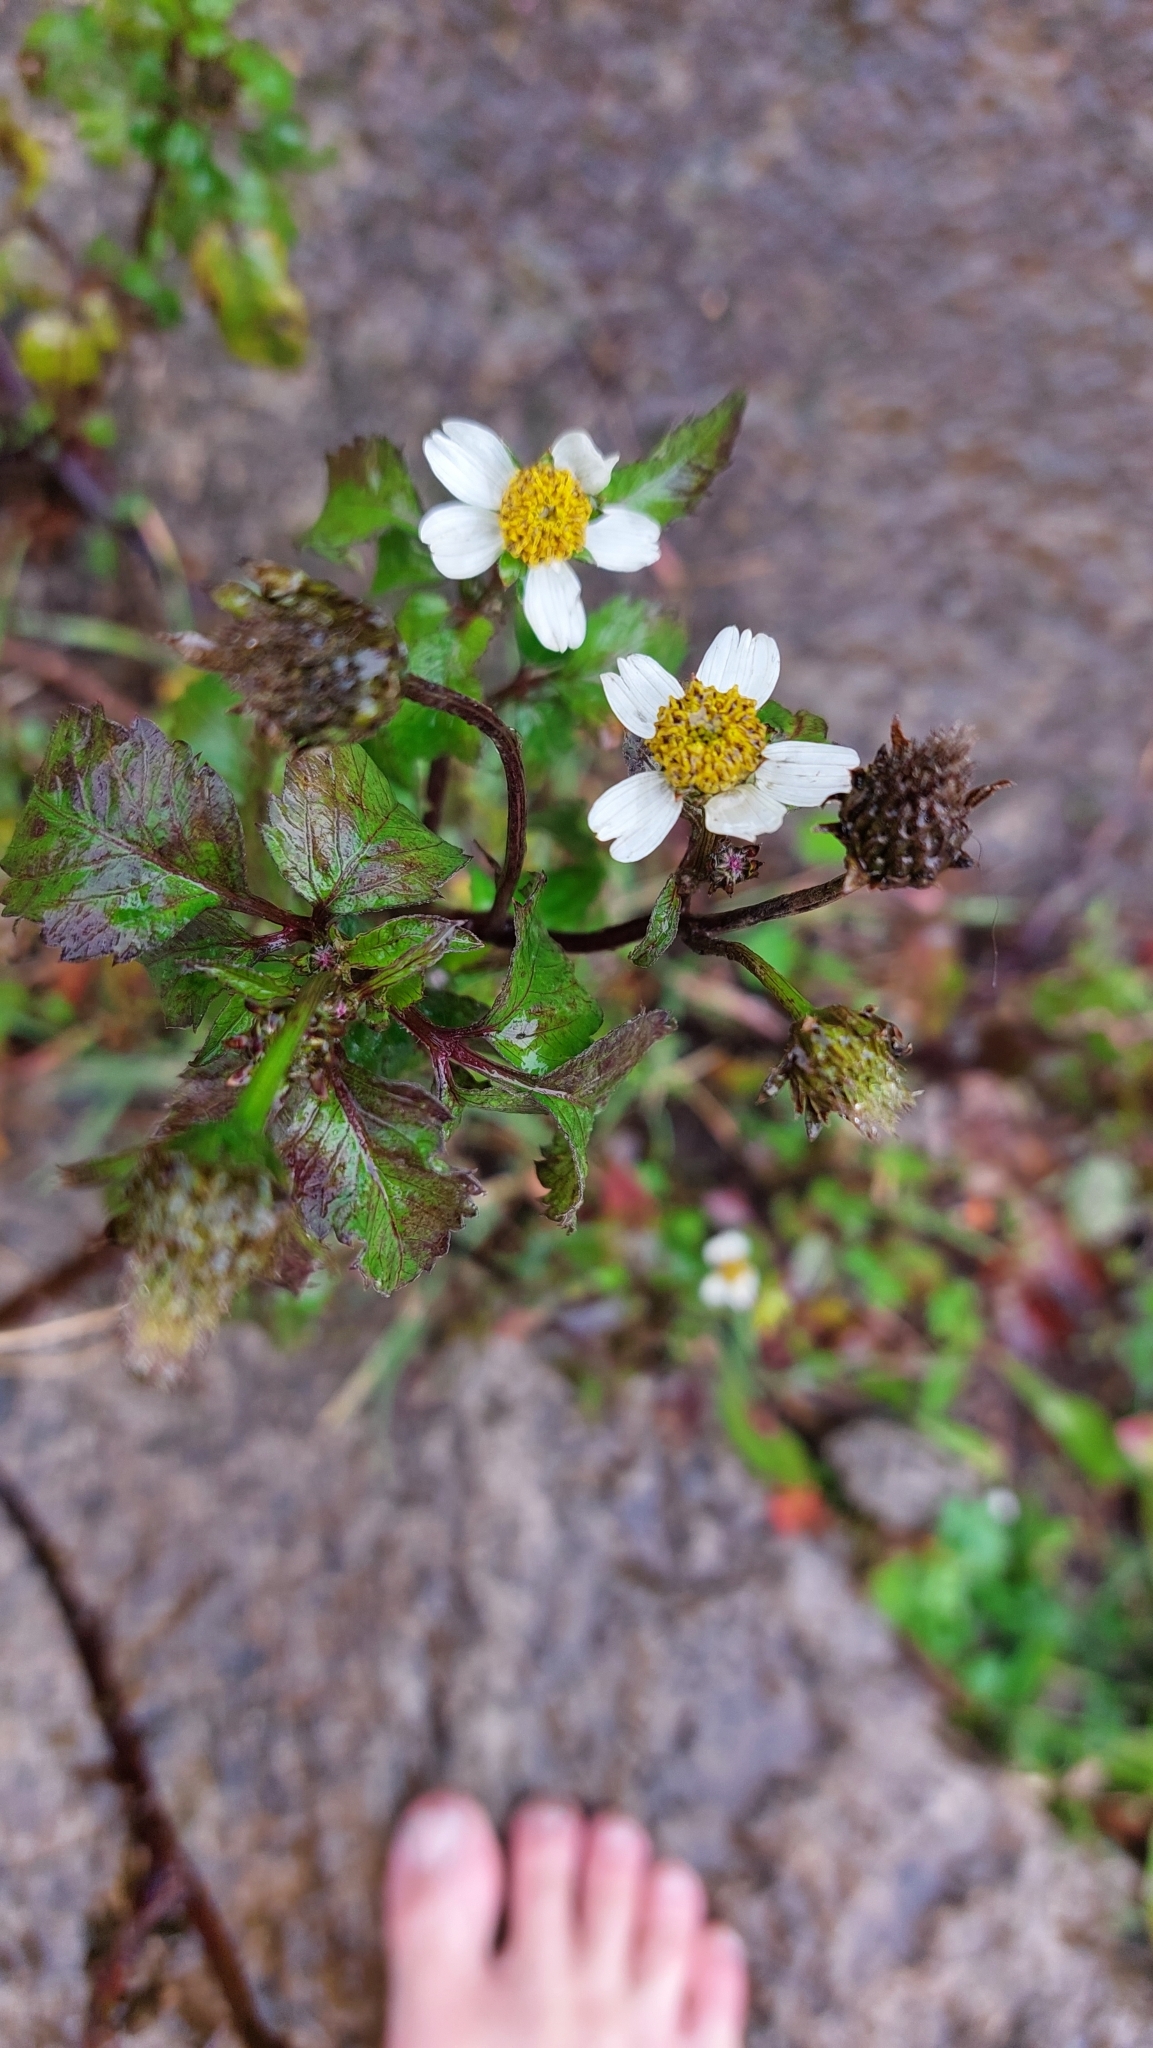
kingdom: Plantae
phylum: Tracheophyta
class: Magnoliopsida
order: Asterales
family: Asteraceae
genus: Bidens
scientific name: Bidens pilosa
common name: Black-jack
